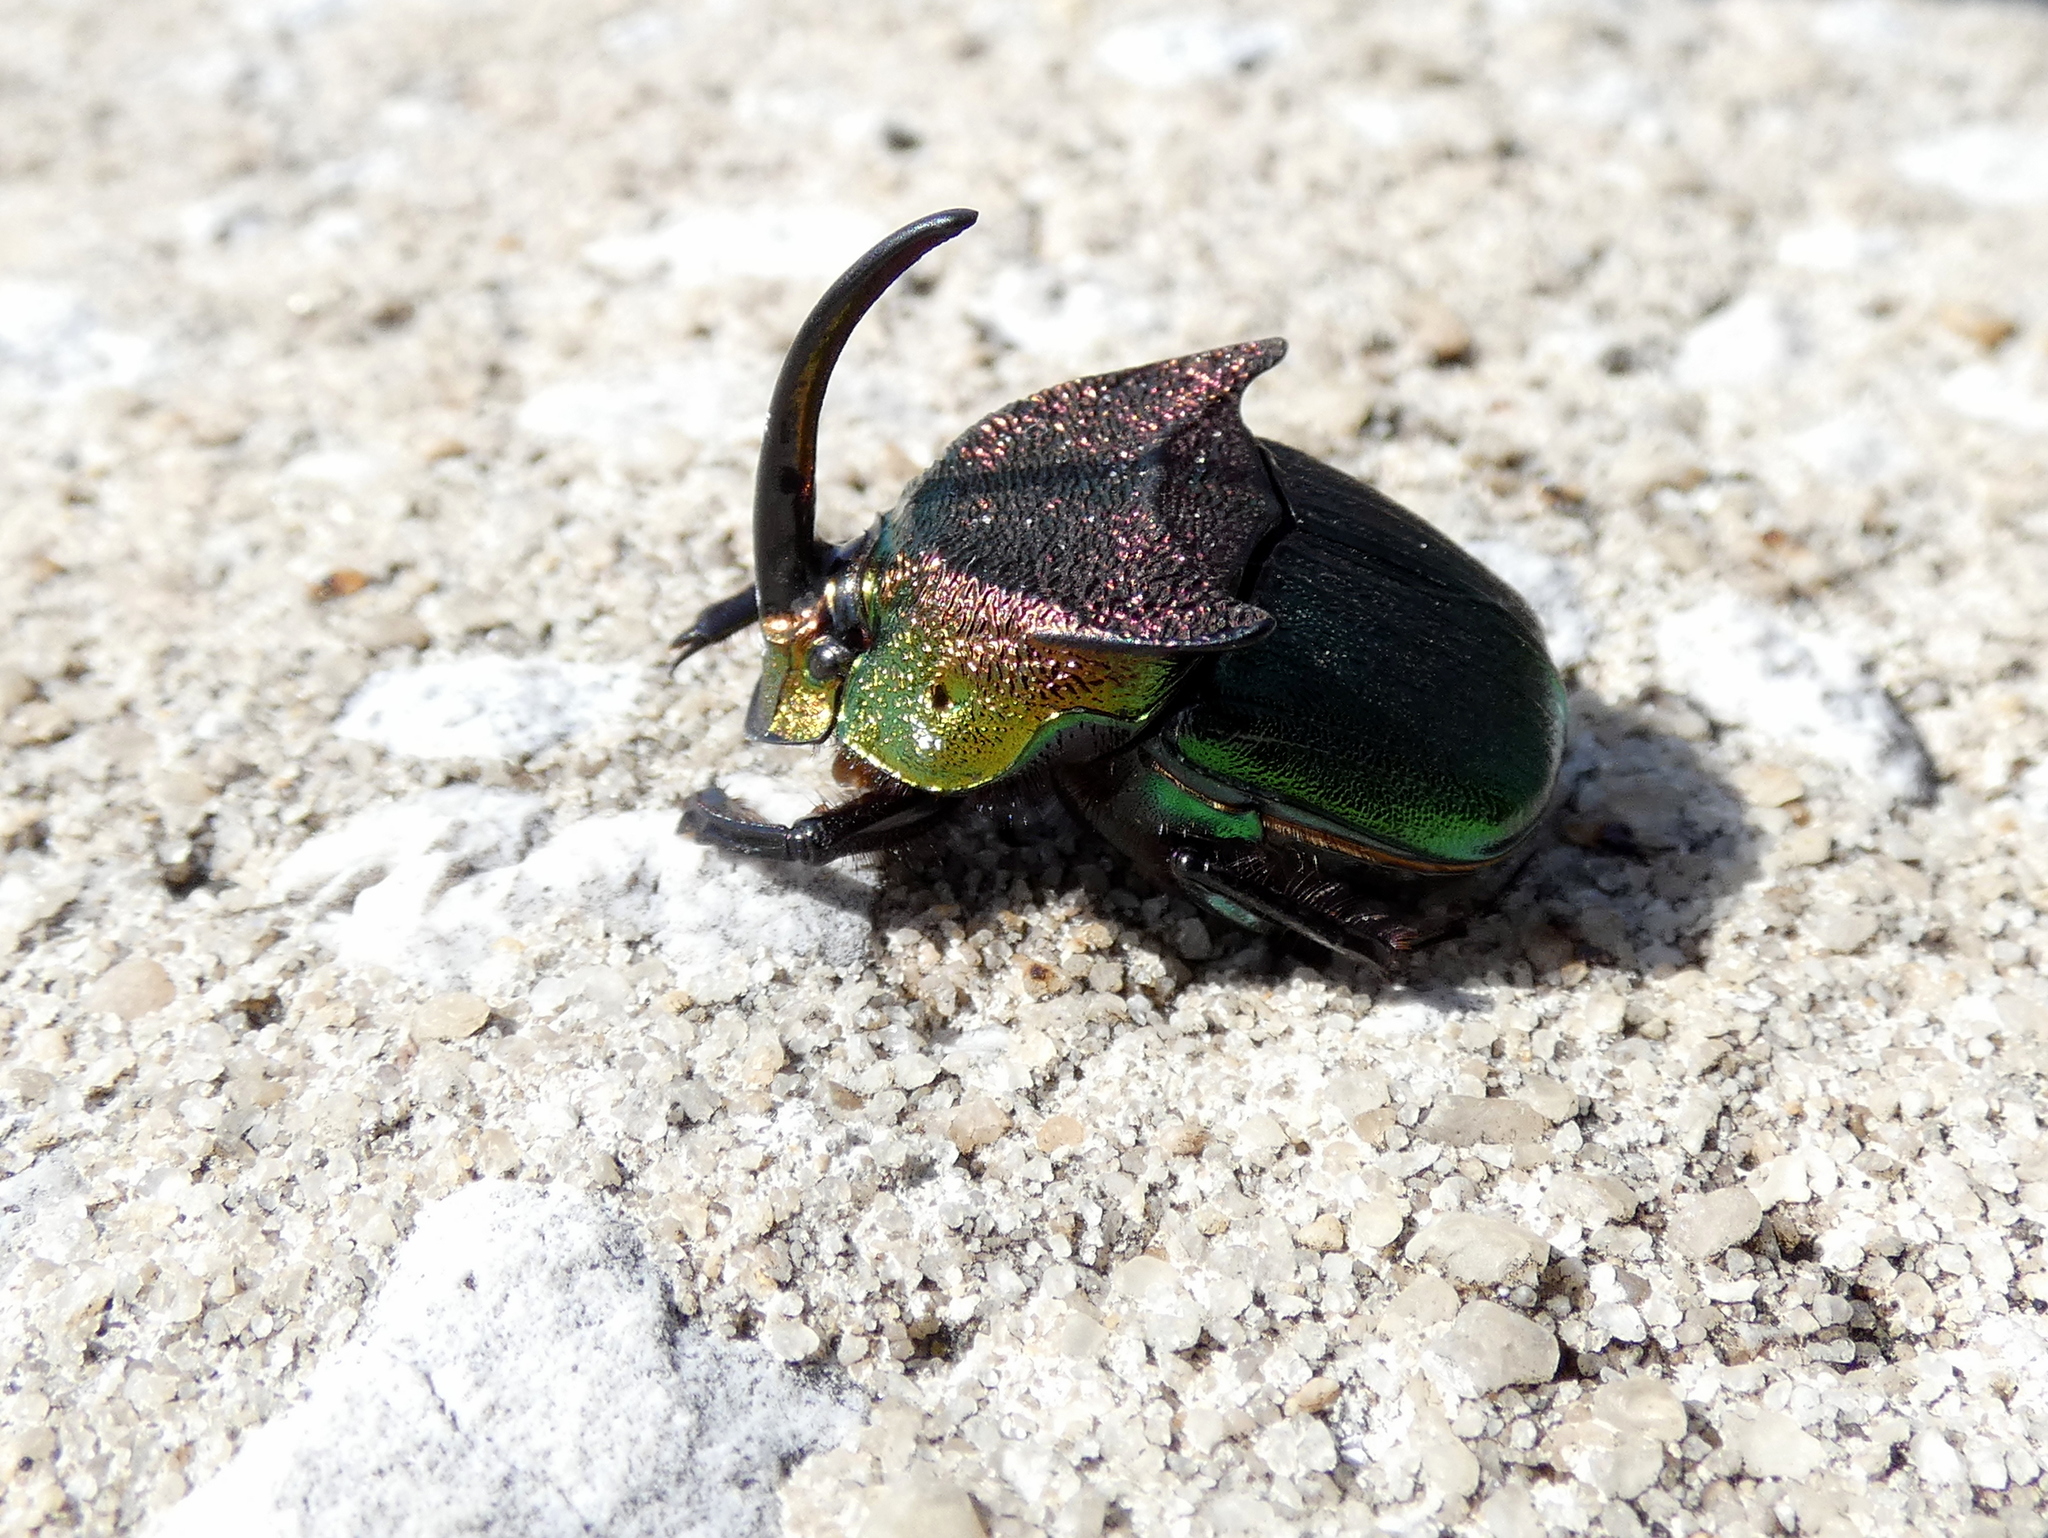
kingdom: Animalia
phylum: Arthropoda
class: Insecta
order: Coleoptera
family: Scarabaeidae
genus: Phanaeus
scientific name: Phanaeus vindex
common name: Rainbow scarab
